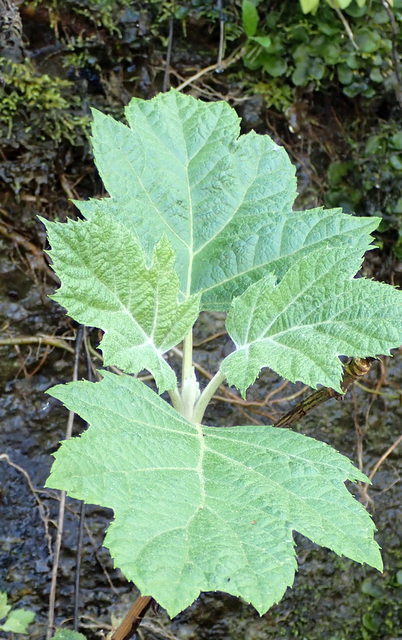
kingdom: Plantae
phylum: Tracheophyta
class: Magnoliopsida
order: Cornales
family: Hydrangeaceae
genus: Hydrangea
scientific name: Hydrangea quercifolia
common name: Oak-leaf hydrangea
